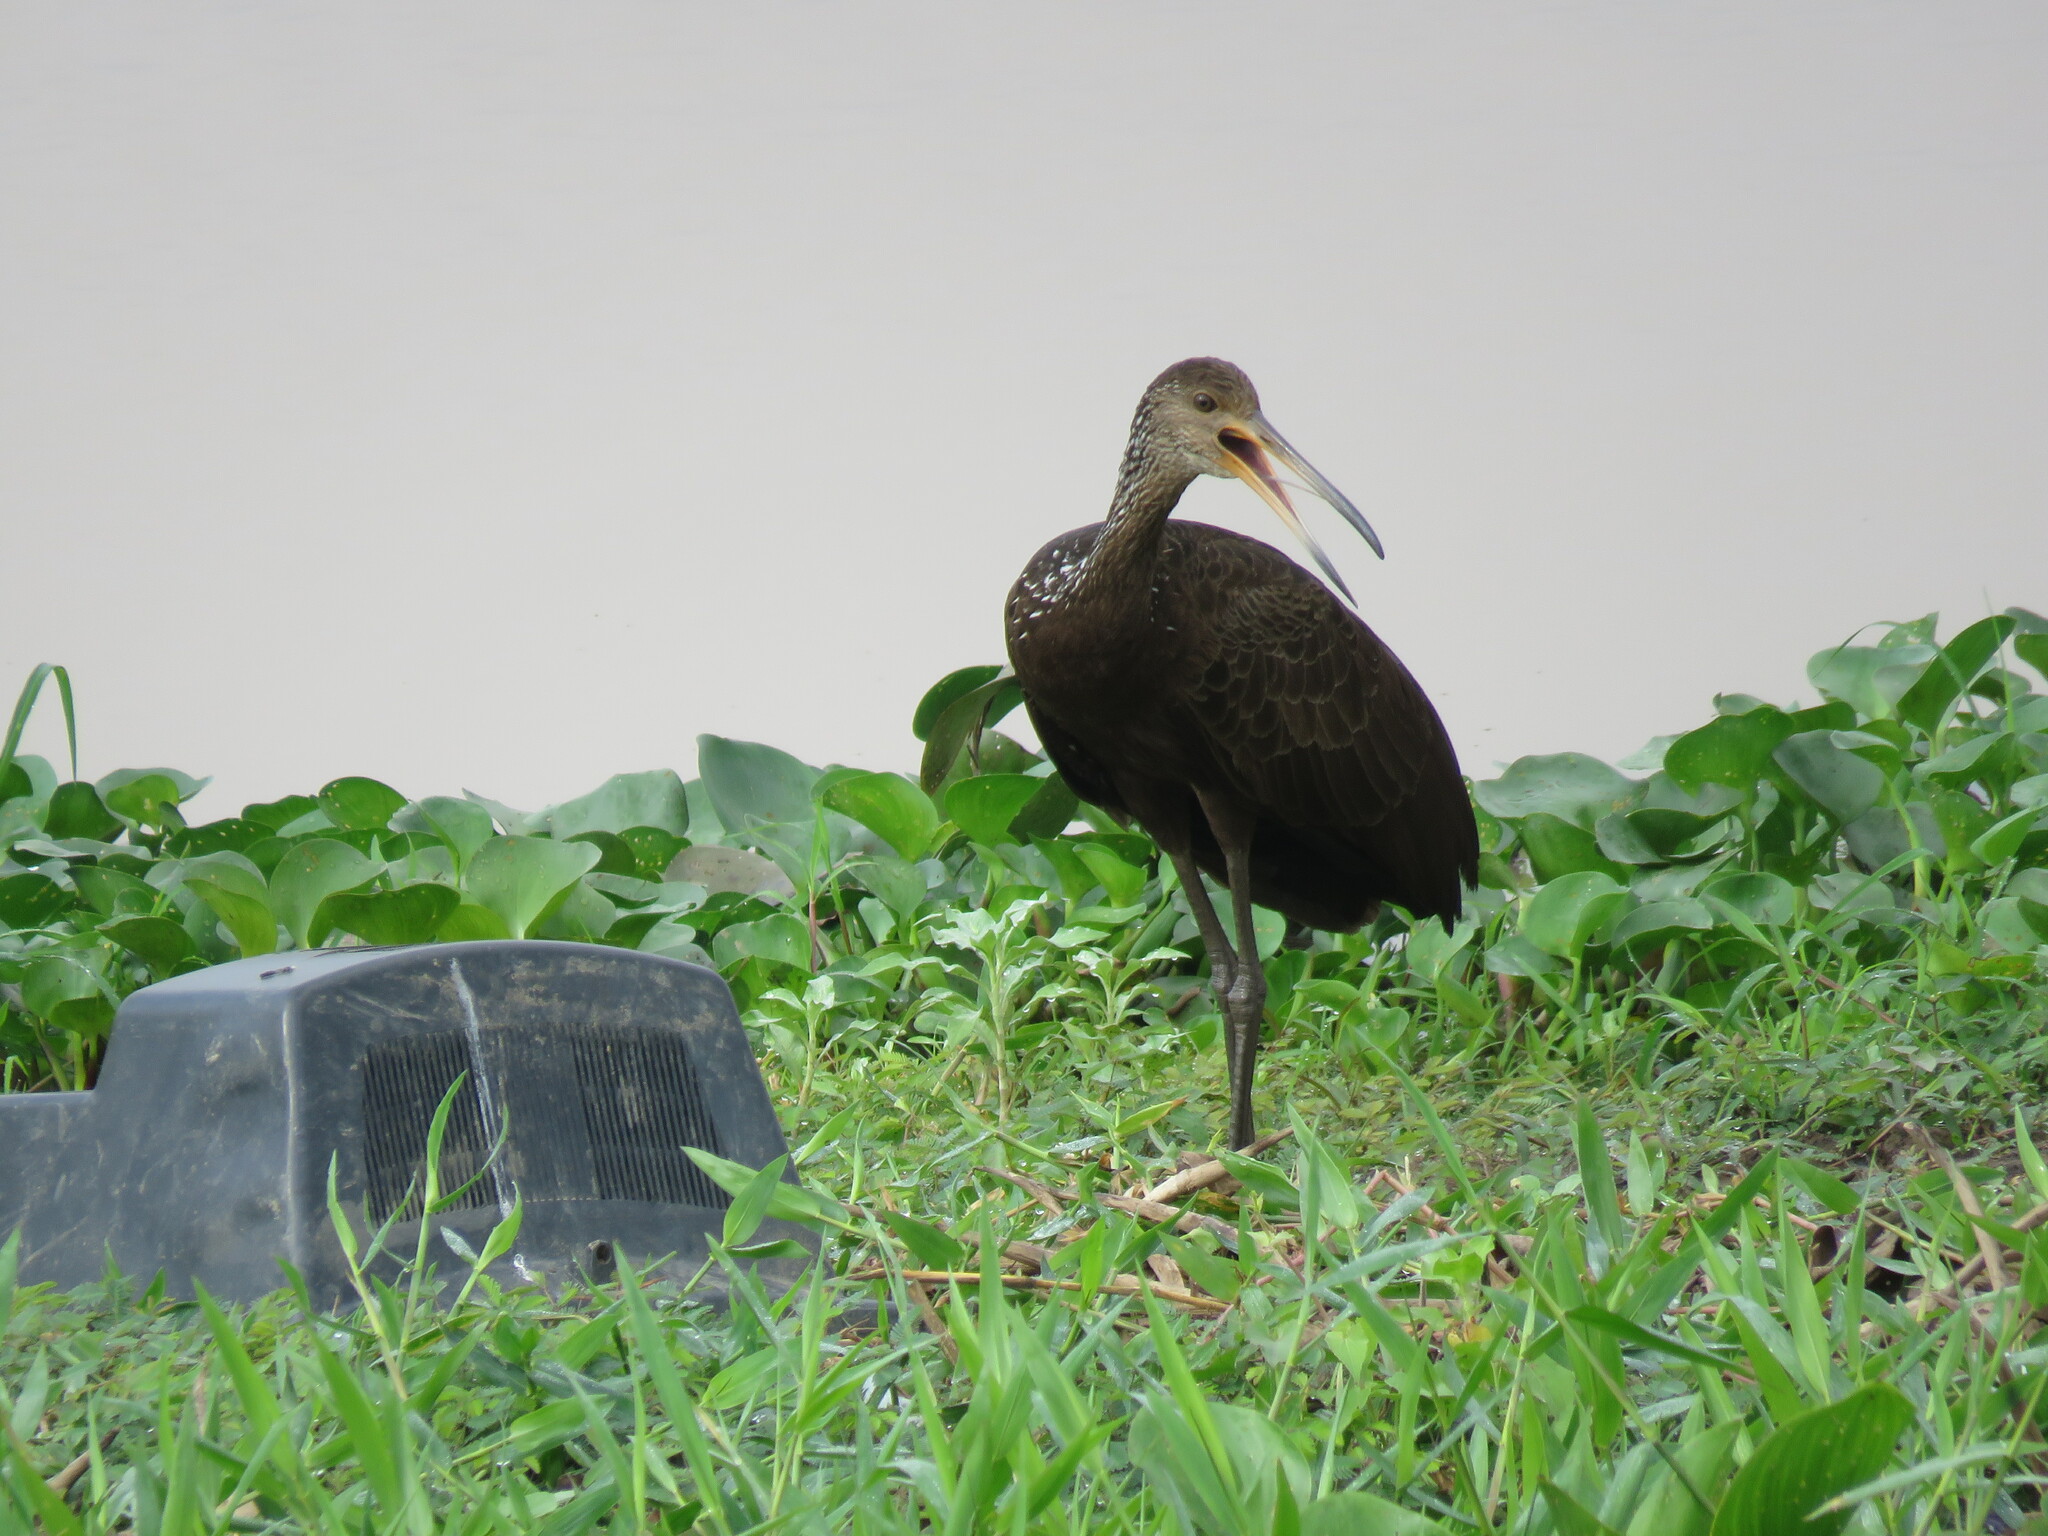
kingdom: Animalia
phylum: Chordata
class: Aves
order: Gruiformes
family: Aramidae
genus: Aramus
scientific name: Aramus guarauna
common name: Limpkin
